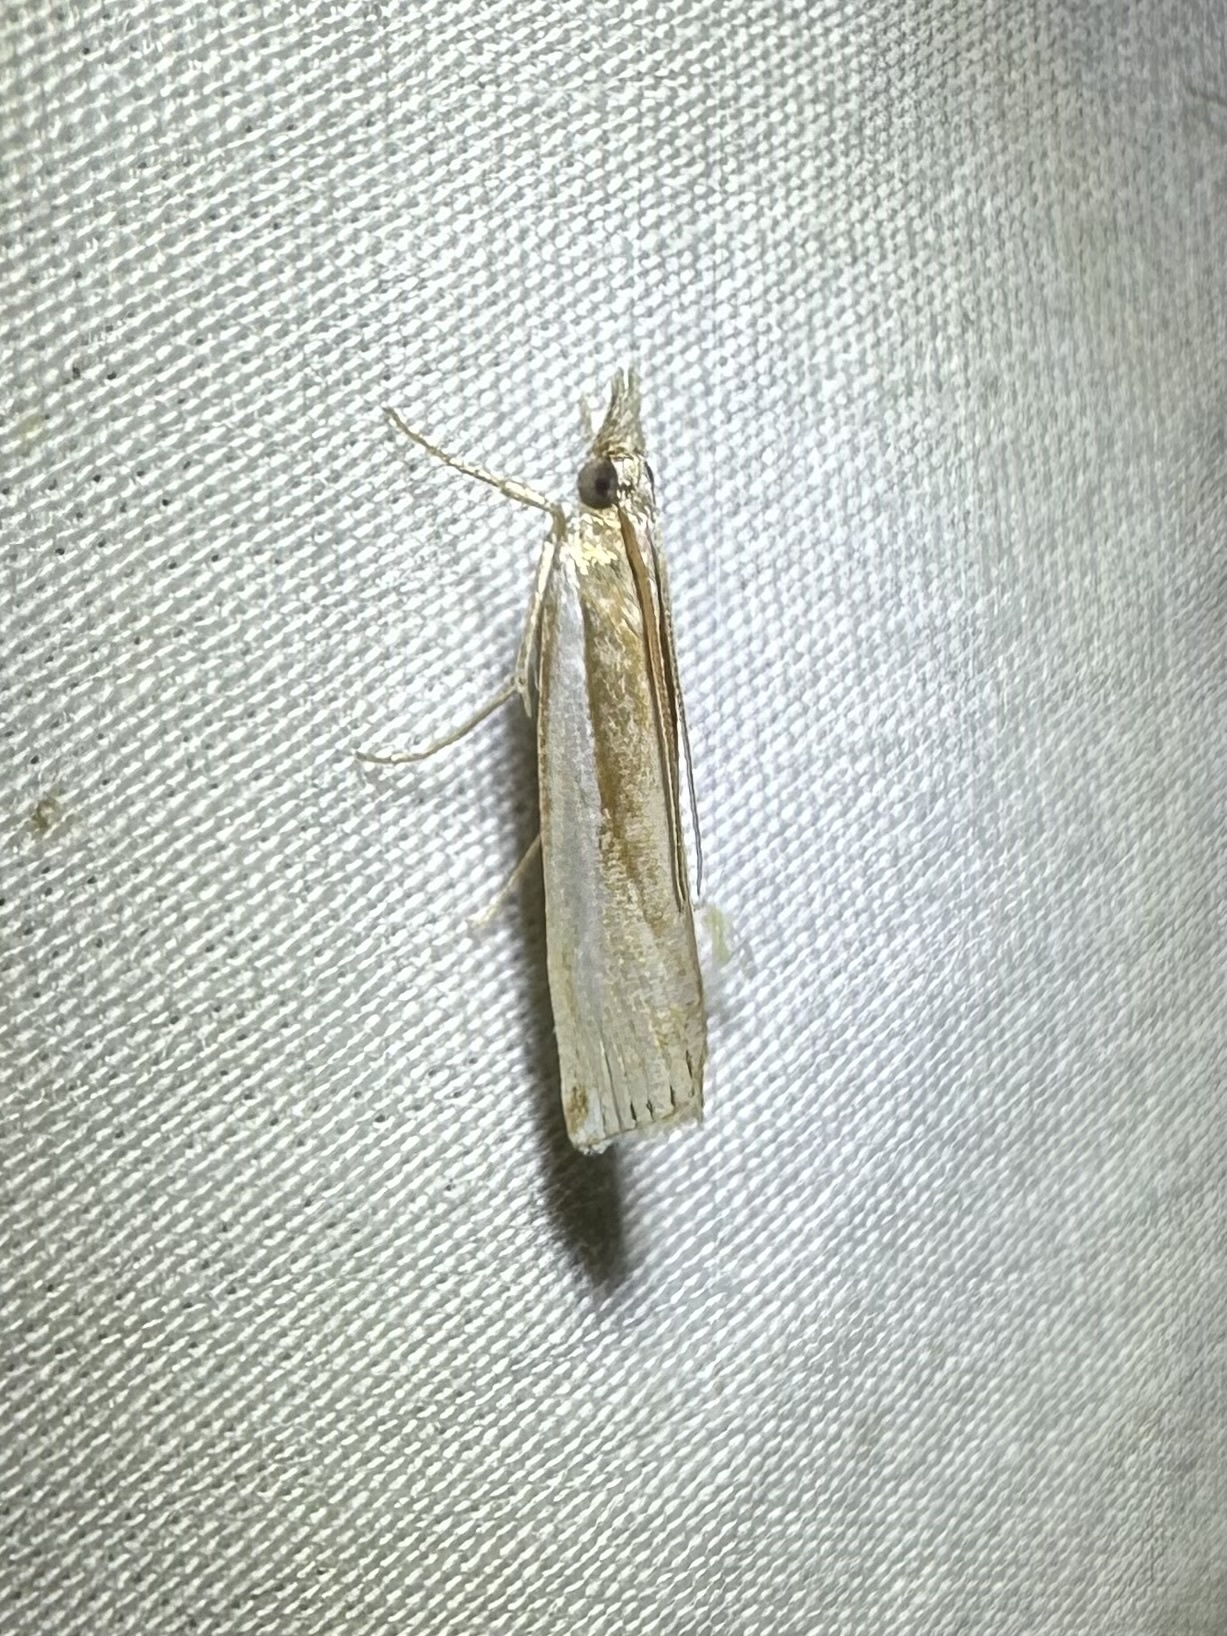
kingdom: Animalia
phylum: Arthropoda
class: Insecta
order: Lepidoptera
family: Crambidae
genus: Crambus
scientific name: Crambus
